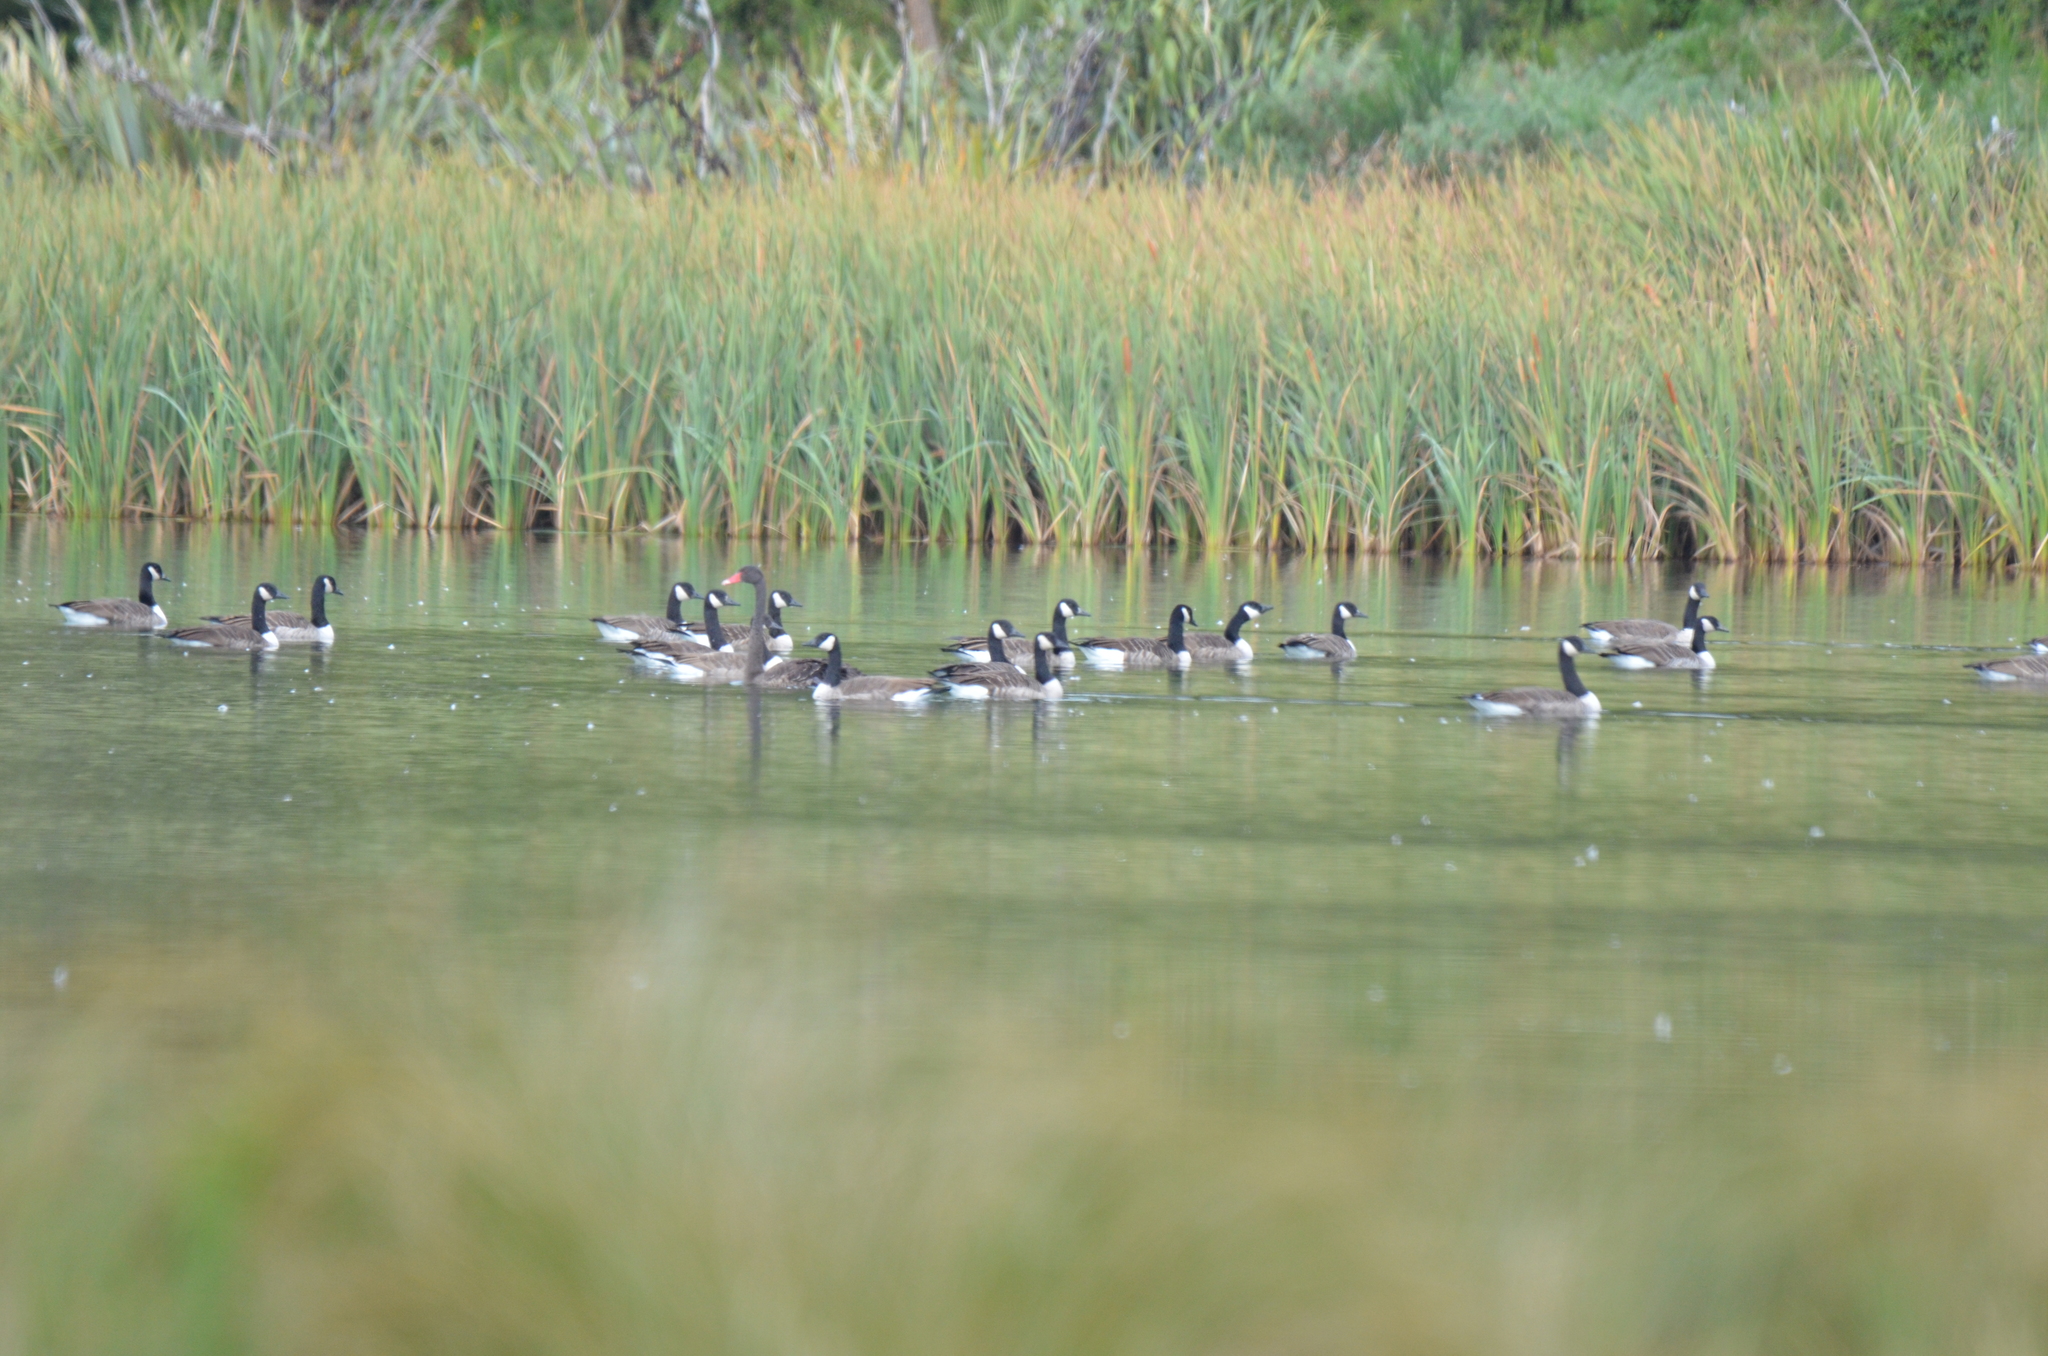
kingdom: Animalia
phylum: Chordata
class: Aves
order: Anseriformes
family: Anatidae
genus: Branta
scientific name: Branta canadensis
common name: Canada goose
